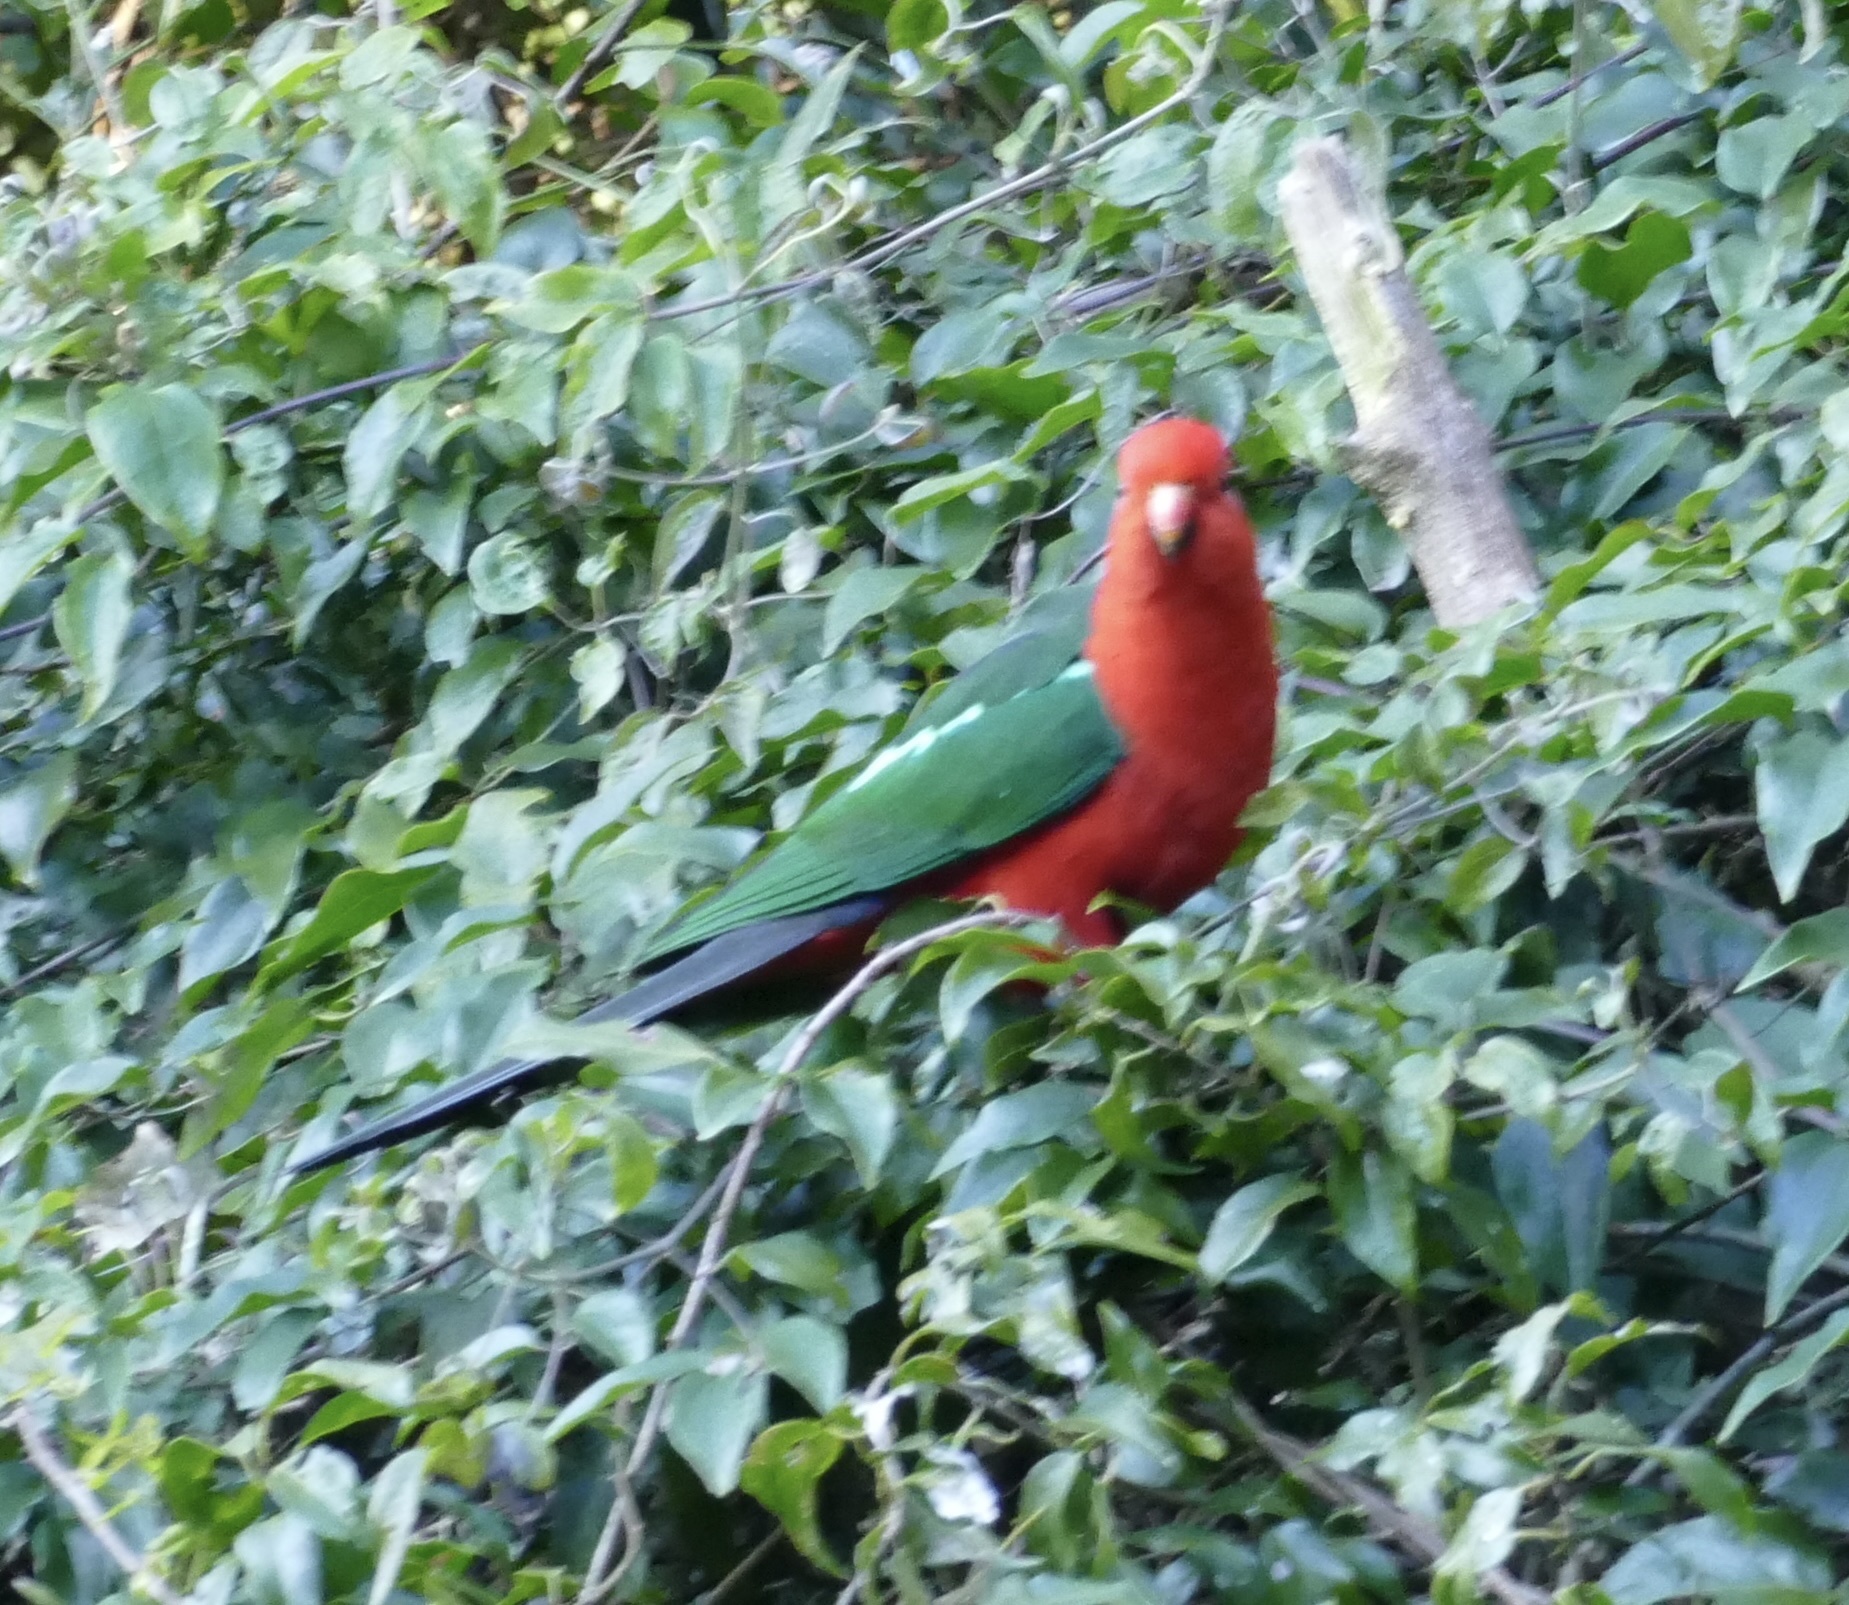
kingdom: Animalia
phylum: Chordata
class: Aves
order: Psittaciformes
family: Psittacidae
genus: Alisterus
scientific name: Alisterus scapularis
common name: Australian king parrot
